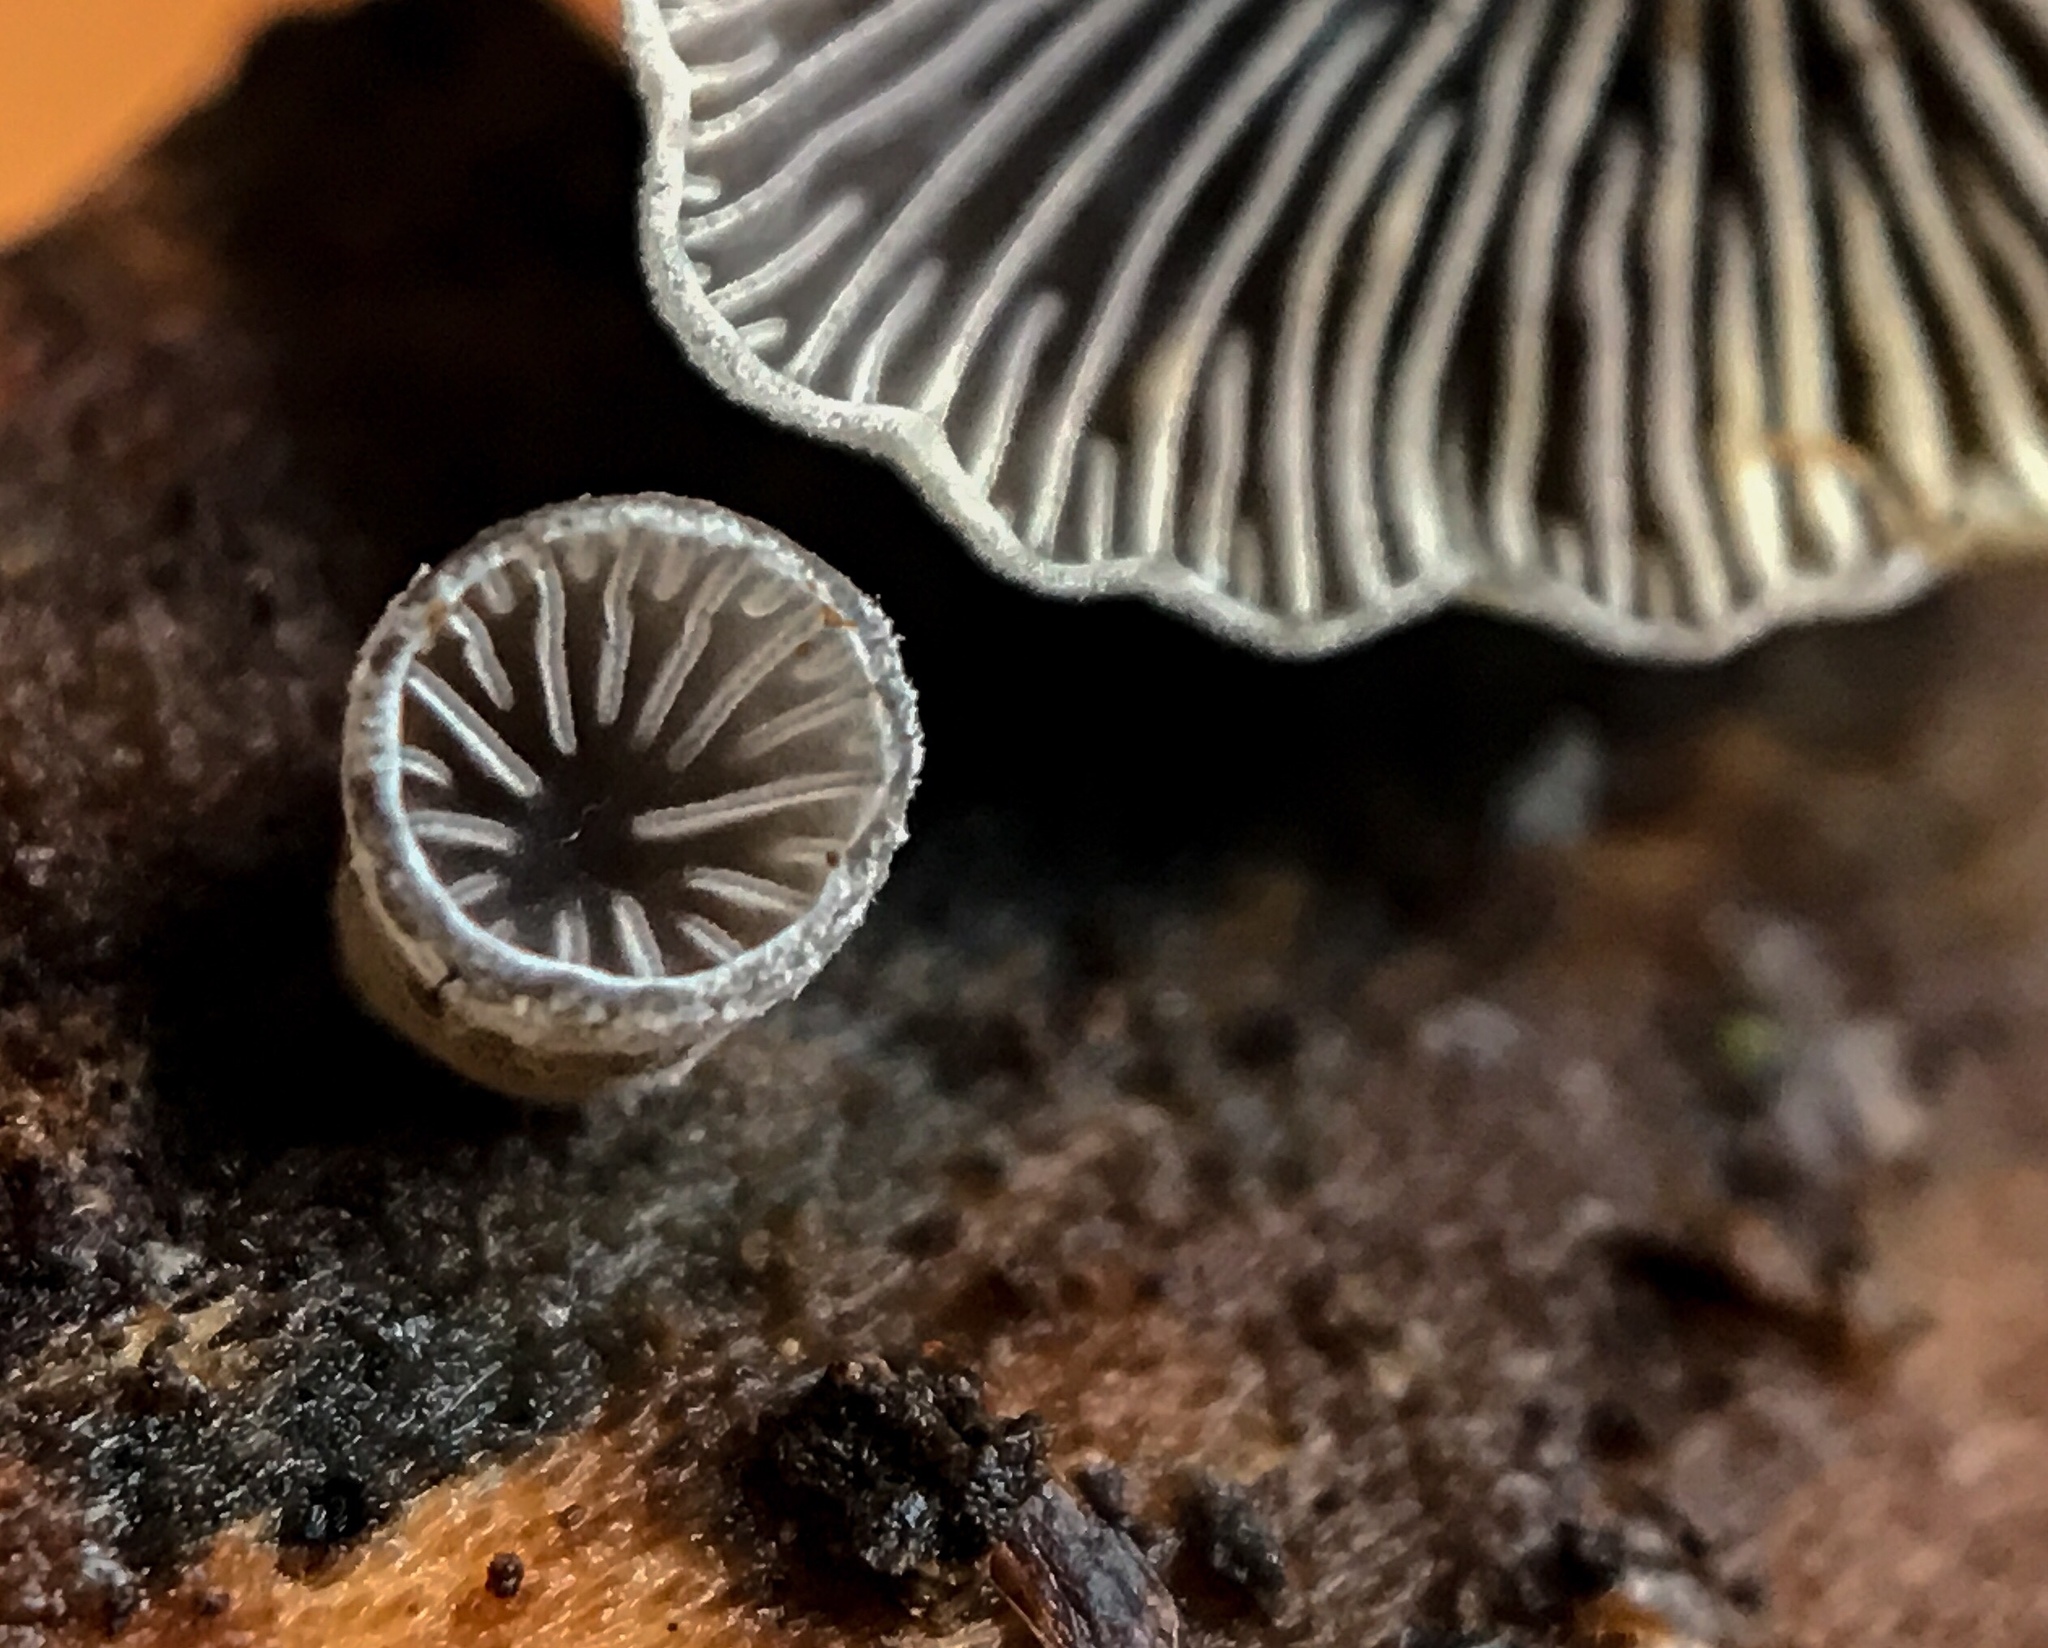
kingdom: Fungi
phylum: Basidiomycota
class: Agaricomycetes
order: Agaricales
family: Pleurotaceae
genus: Resupinatus
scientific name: Resupinatus applicatus
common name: Smoked oysterling
